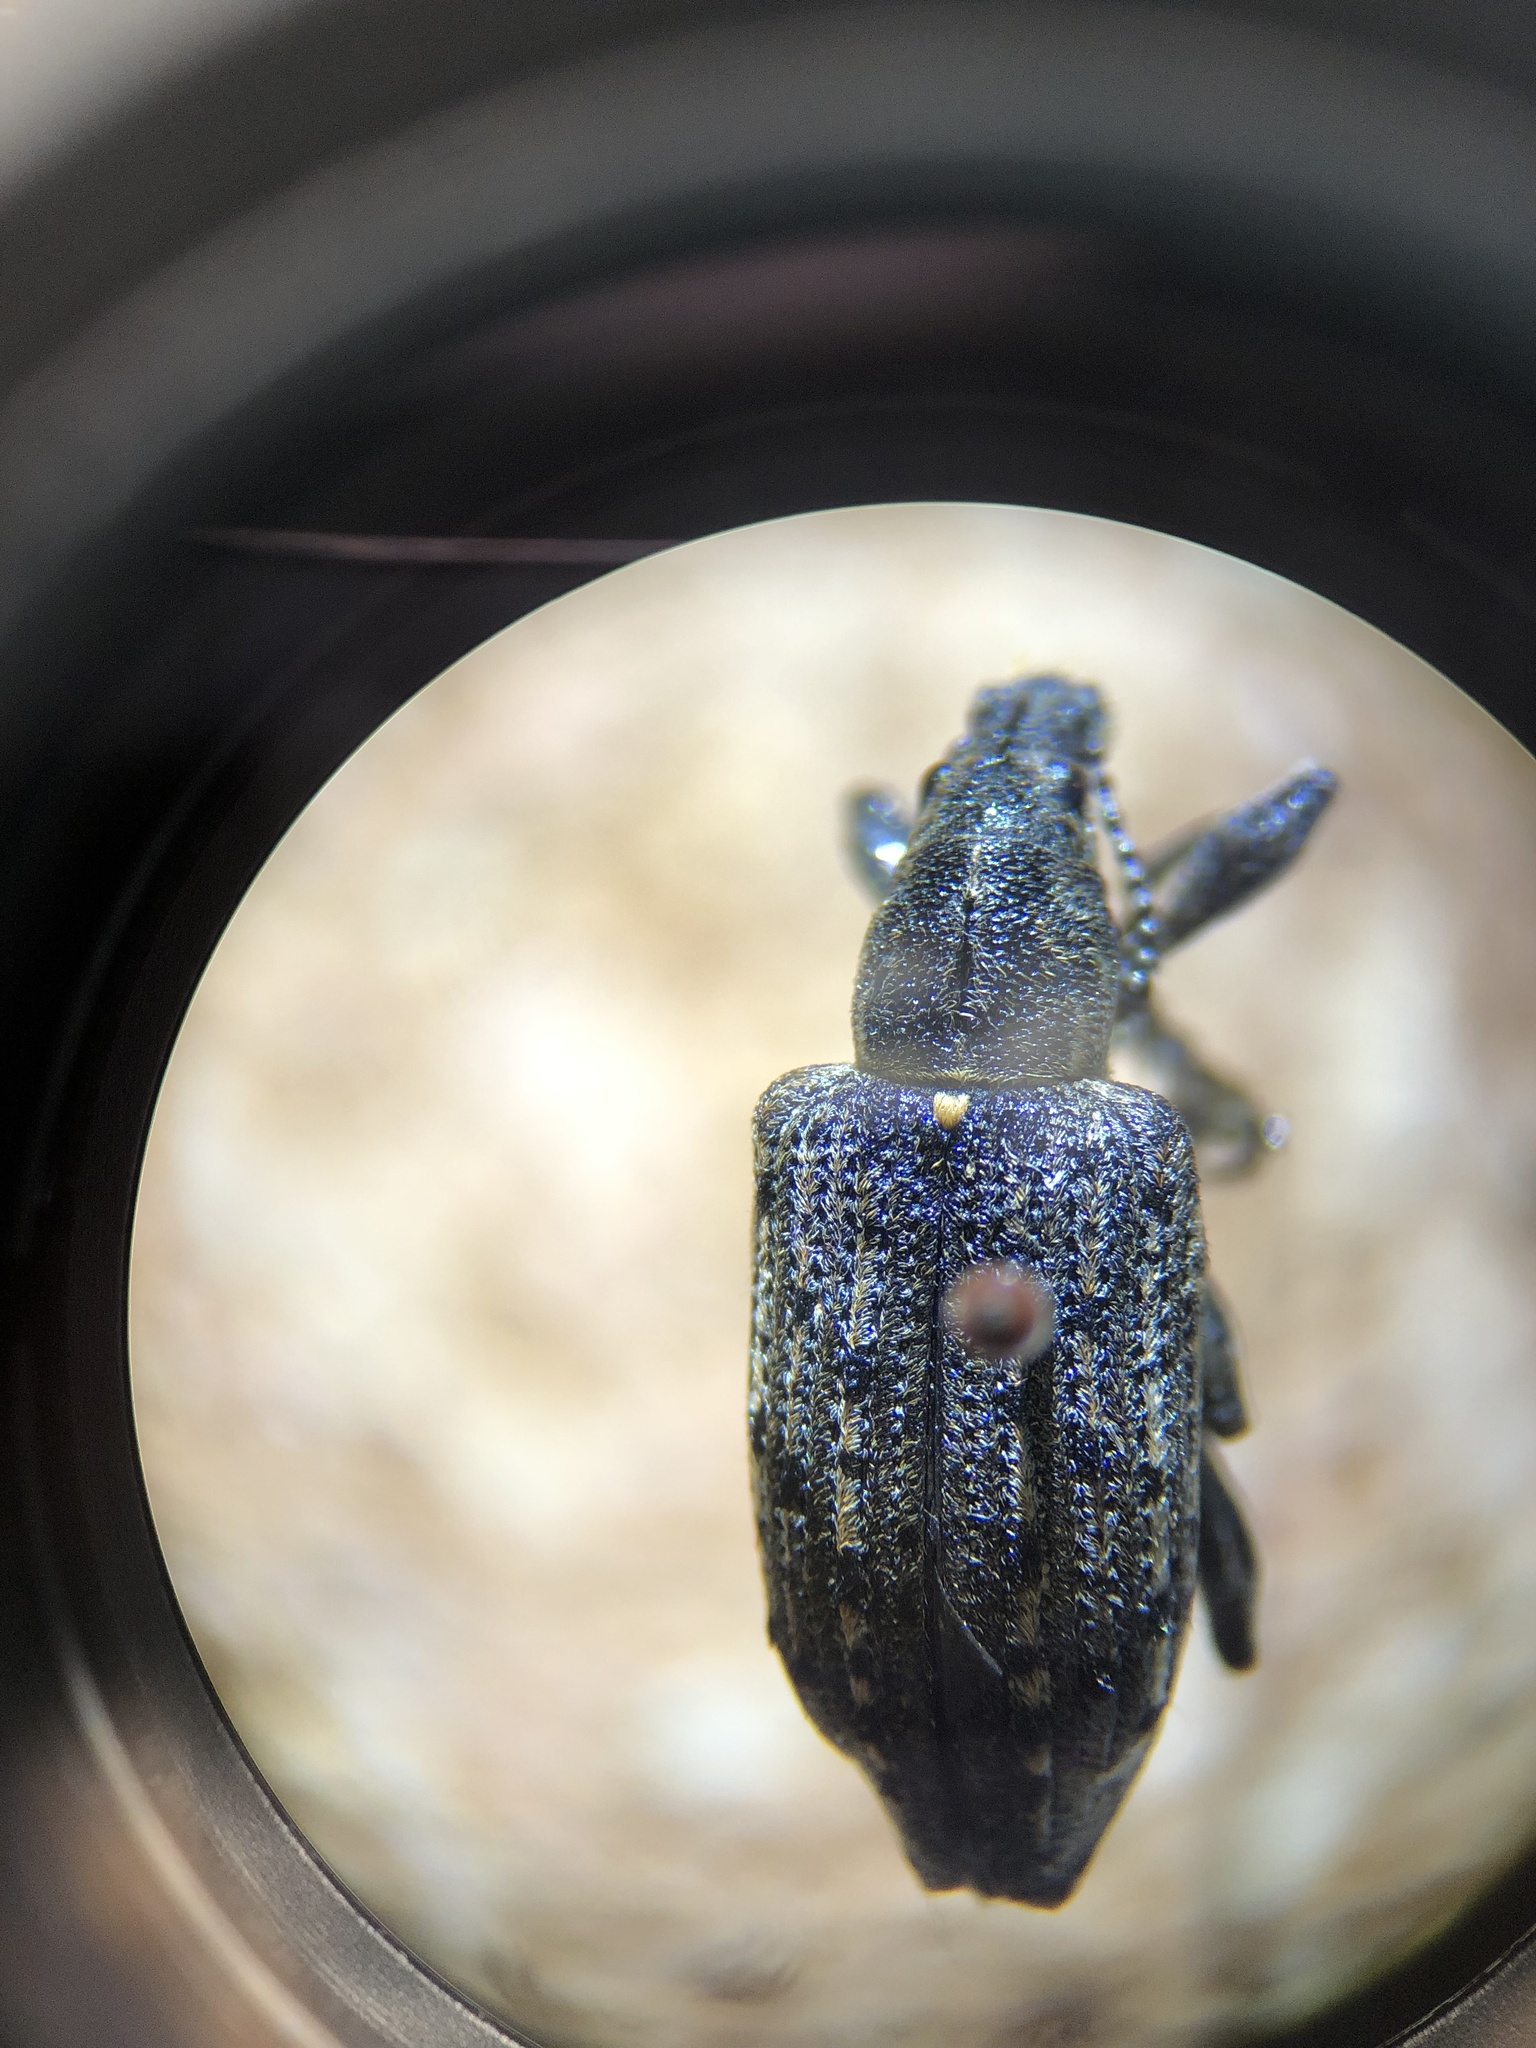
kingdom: Animalia
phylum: Arthropoda
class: Insecta
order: Coleoptera
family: Ithyceridae
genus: Ithycerus
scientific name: Ithycerus noveboracensis
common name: New york weevil
